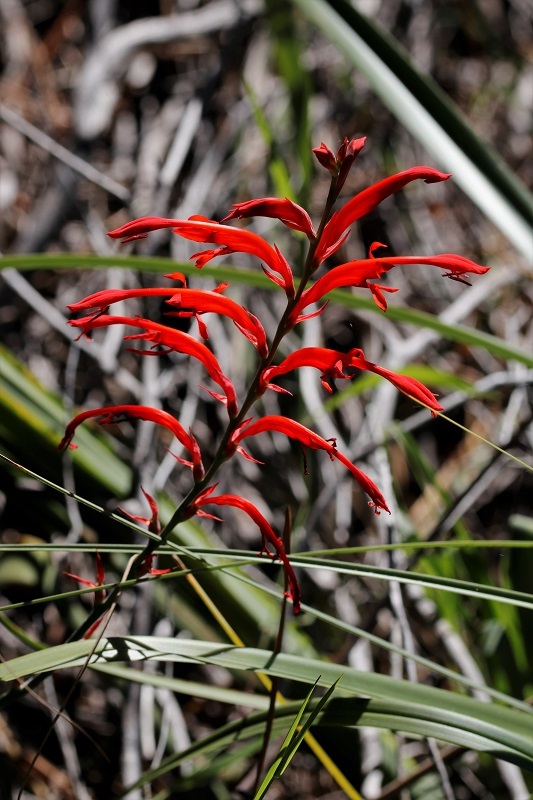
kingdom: Plantae
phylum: Tracheophyta
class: Liliopsida
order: Asparagales
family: Iridaceae
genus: Tritoniopsis
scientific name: Tritoniopsis caffra
